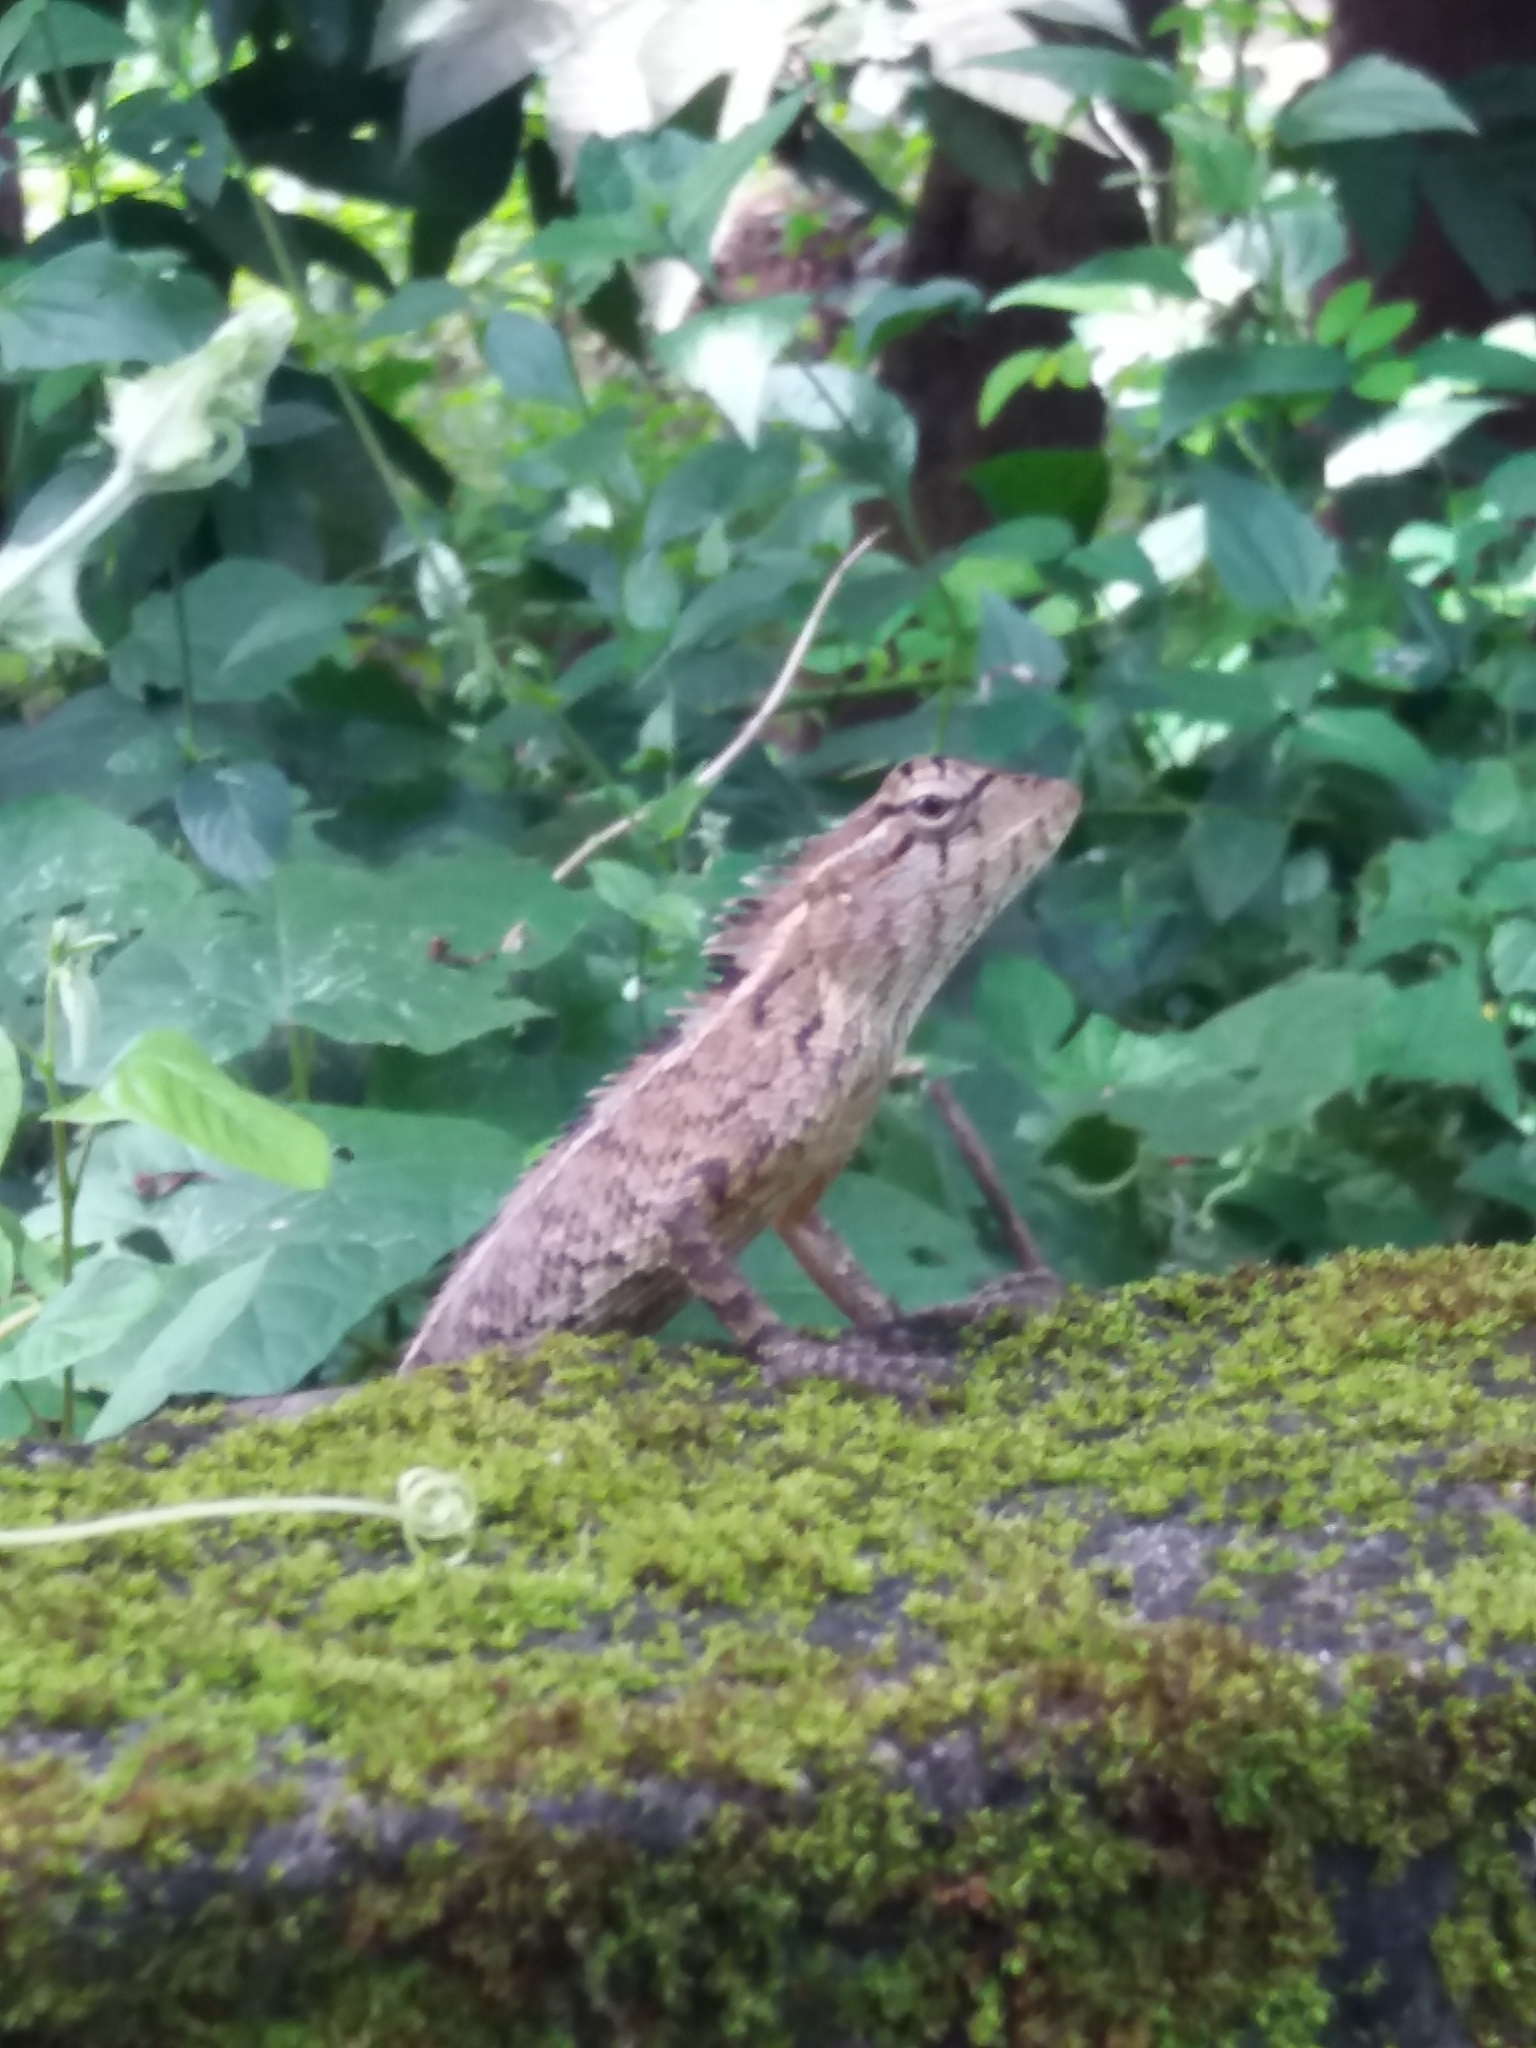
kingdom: Animalia
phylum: Chordata
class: Squamata
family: Agamidae
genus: Calotes
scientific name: Calotes versicolor
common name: Oriental garden lizard
